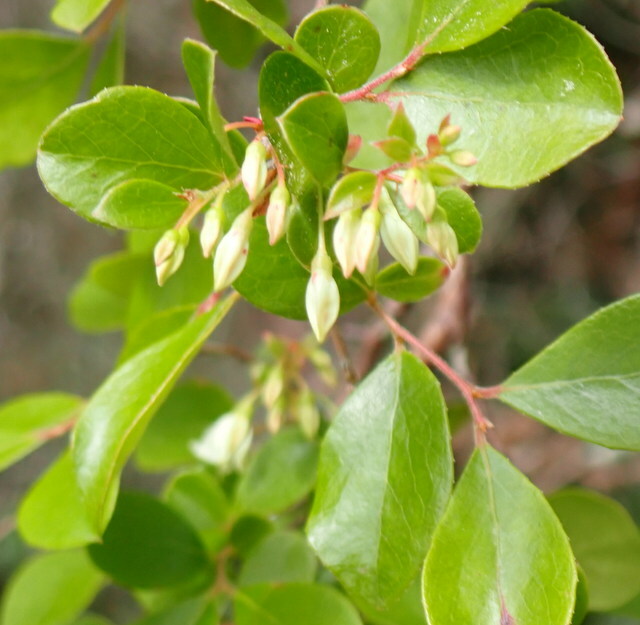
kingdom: Plantae
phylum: Tracheophyta
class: Magnoliopsida
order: Ericales
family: Ericaceae
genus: Vaccinium
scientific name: Vaccinium arboreum
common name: Farkleberry
